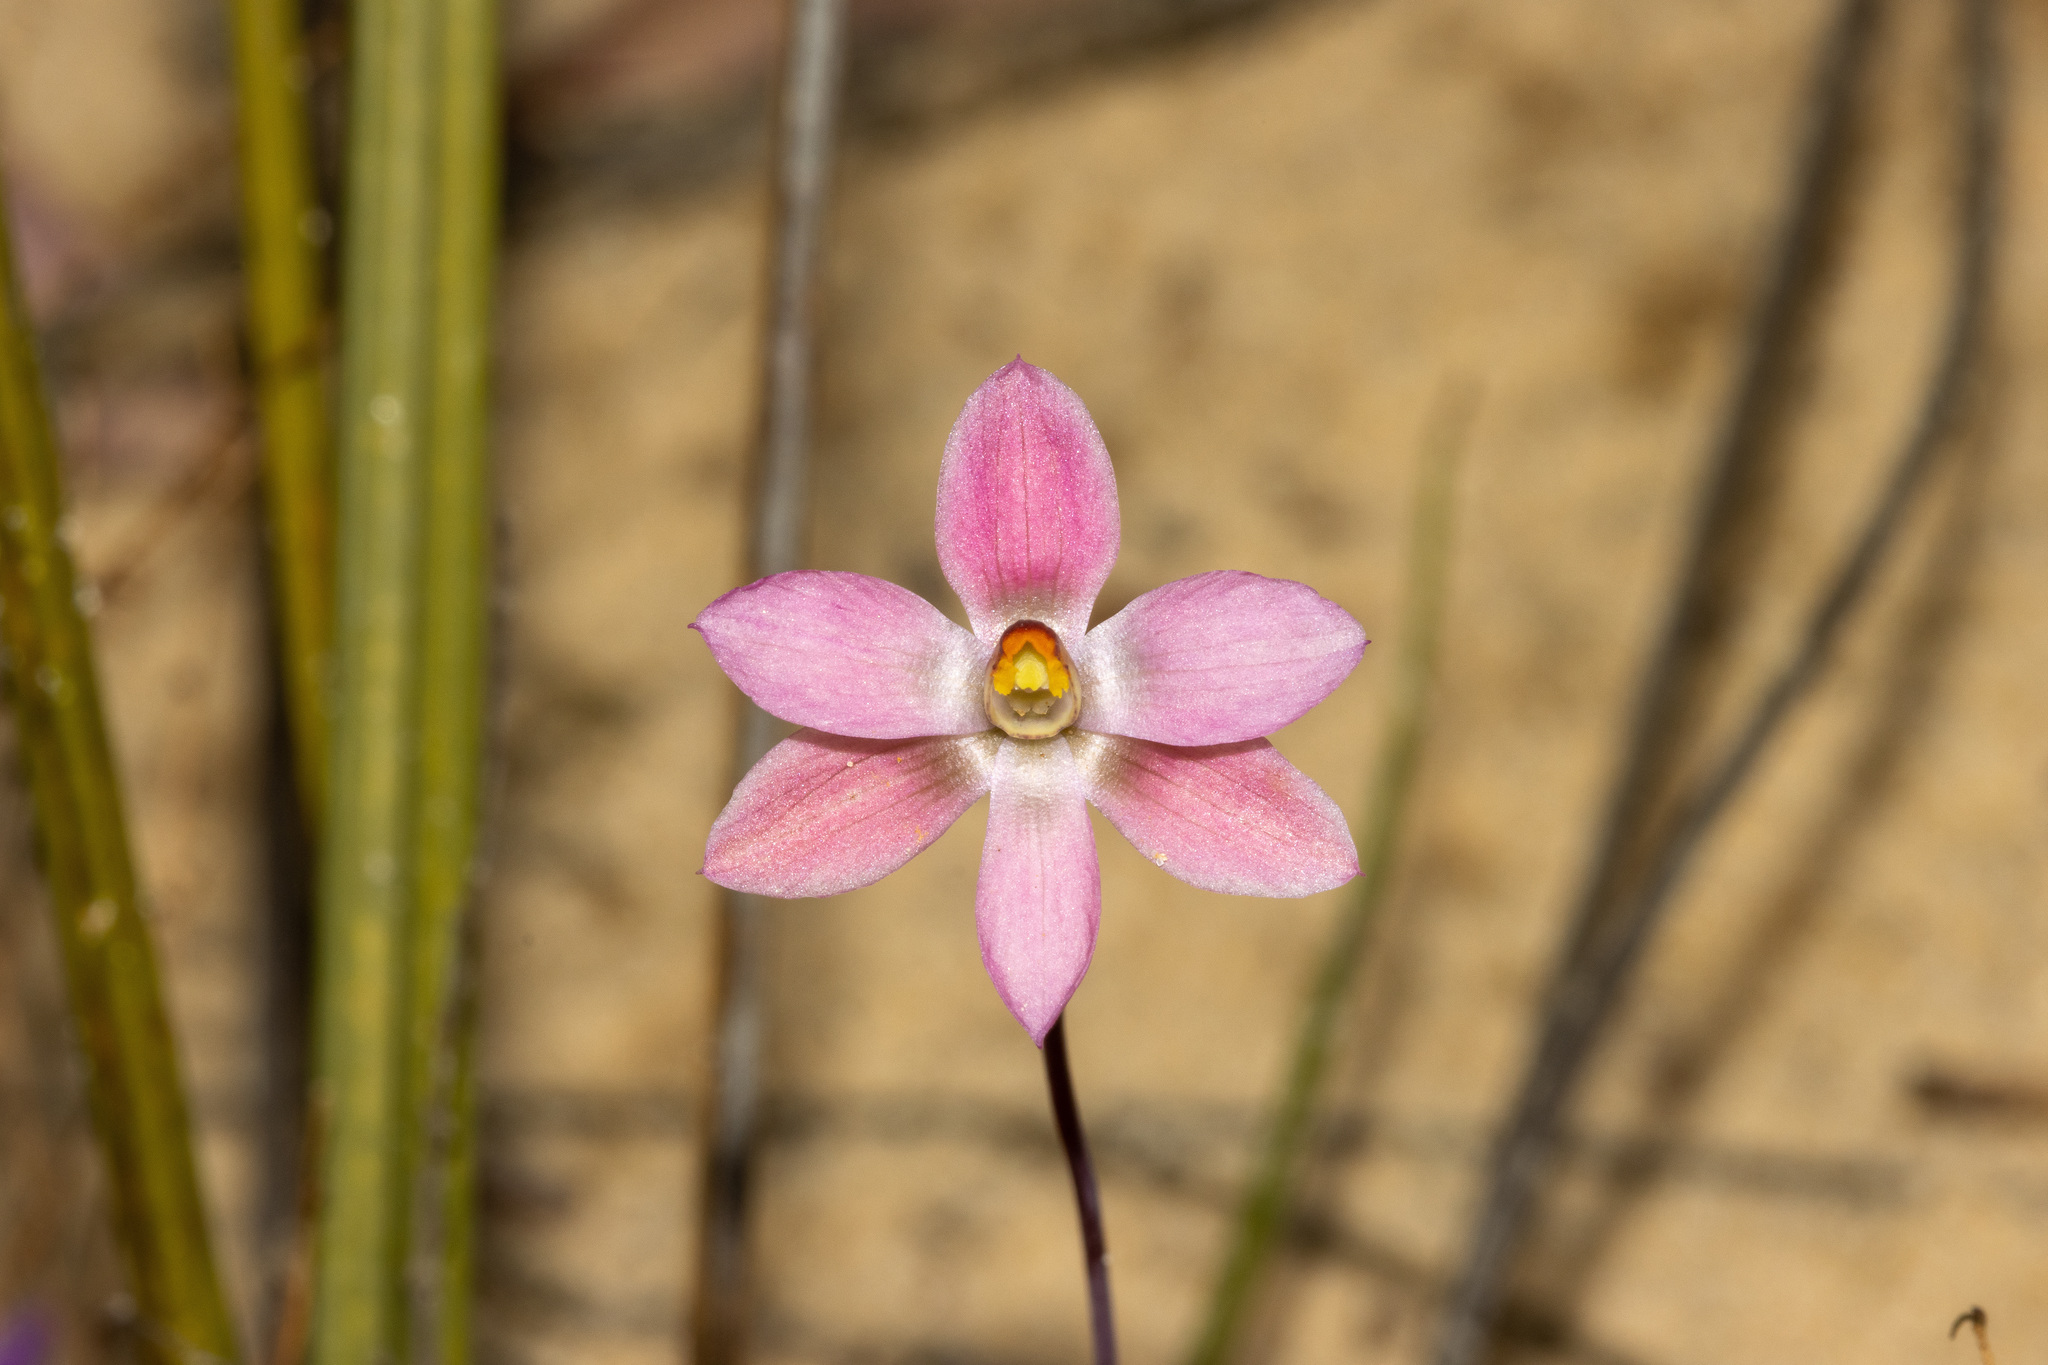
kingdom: Plantae
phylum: Tracheophyta
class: Liliopsida
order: Asparagales
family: Orchidaceae
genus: Thelymitra
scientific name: Thelymitra rubra
